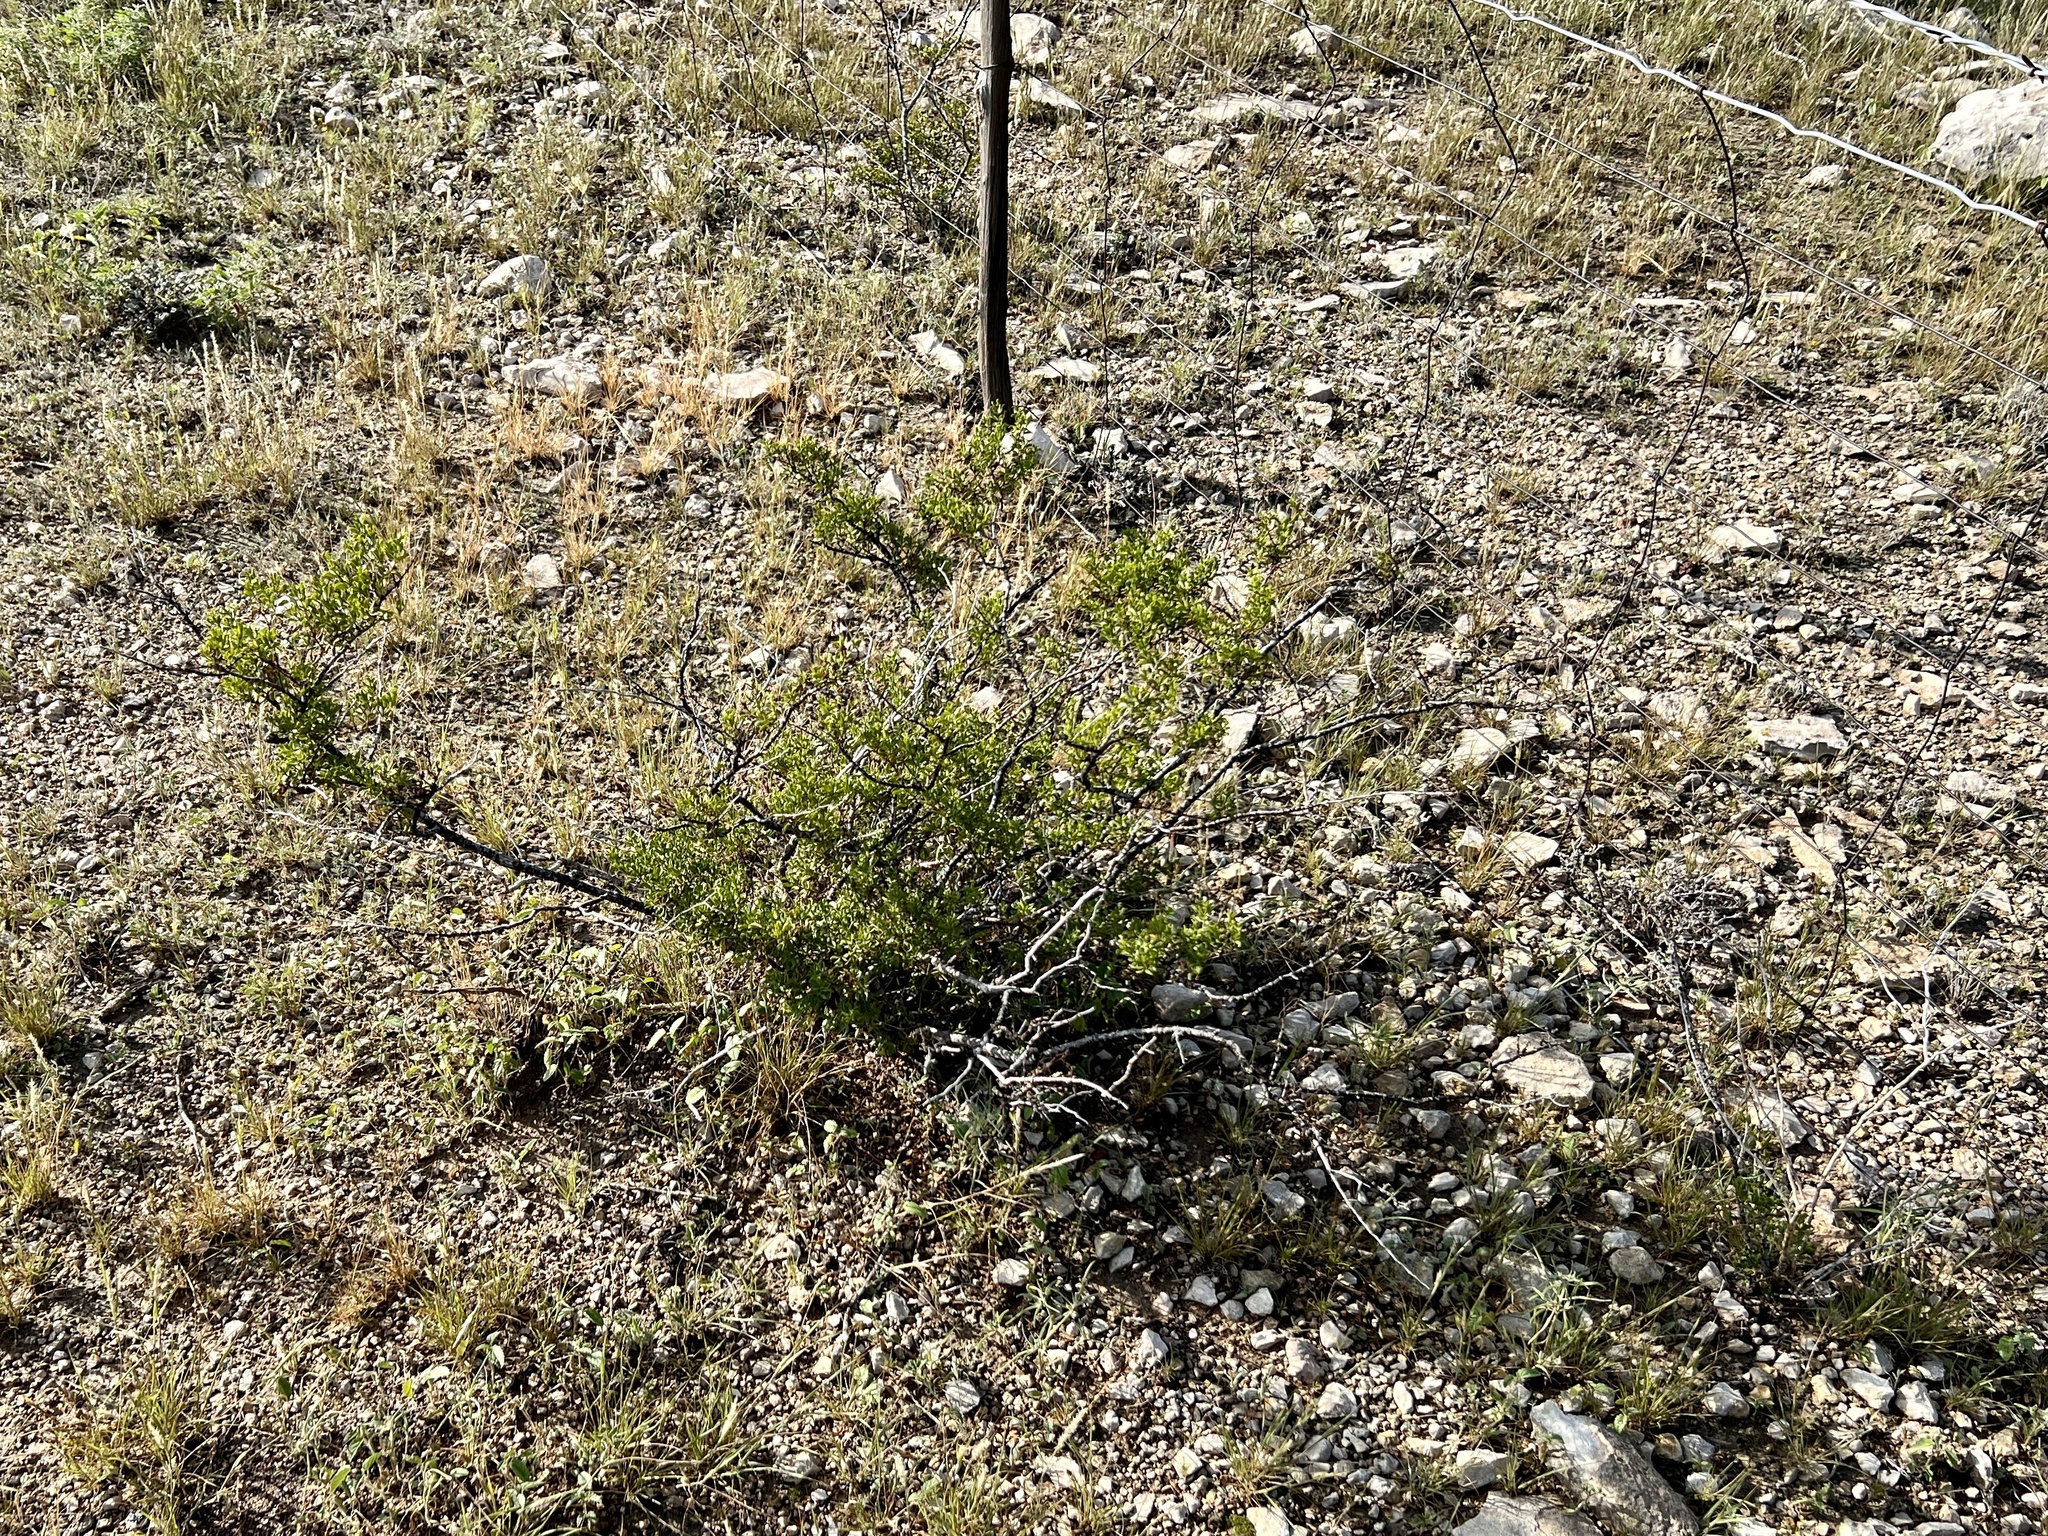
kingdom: Plantae
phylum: Tracheophyta
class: Magnoliopsida
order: Zygophyllales
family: Zygophyllaceae
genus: Larrea
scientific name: Larrea tridentata
